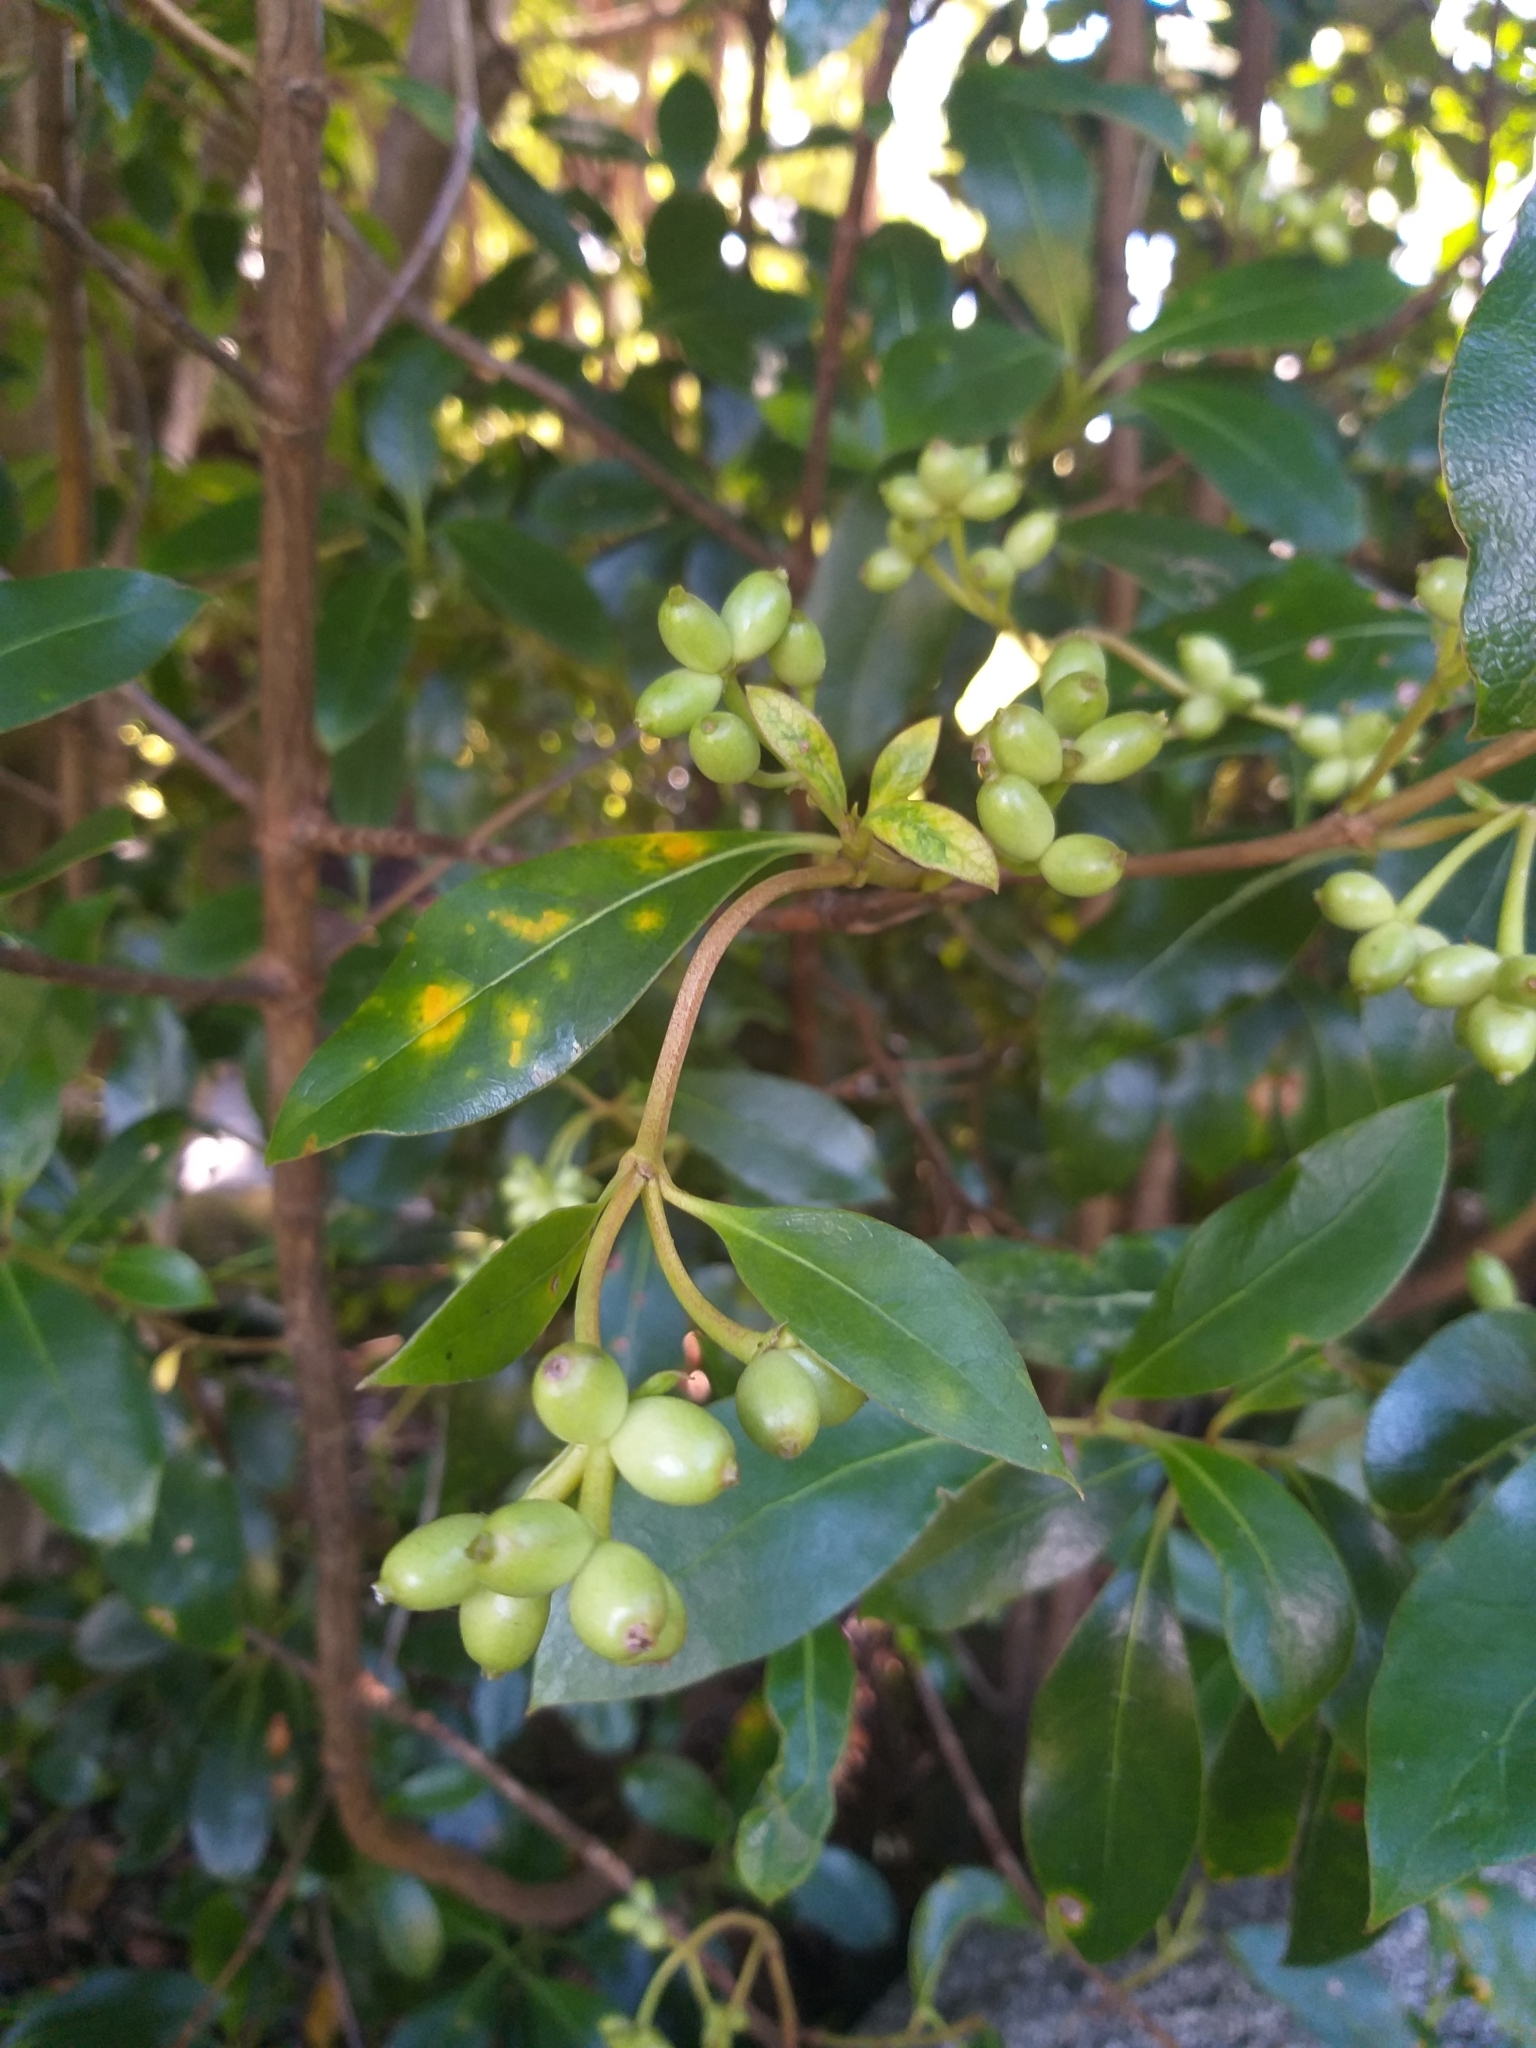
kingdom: Plantae
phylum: Tracheophyta
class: Magnoliopsida
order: Gentianales
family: Rubiaceae
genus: Coprosma
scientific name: Coprosma lucida
